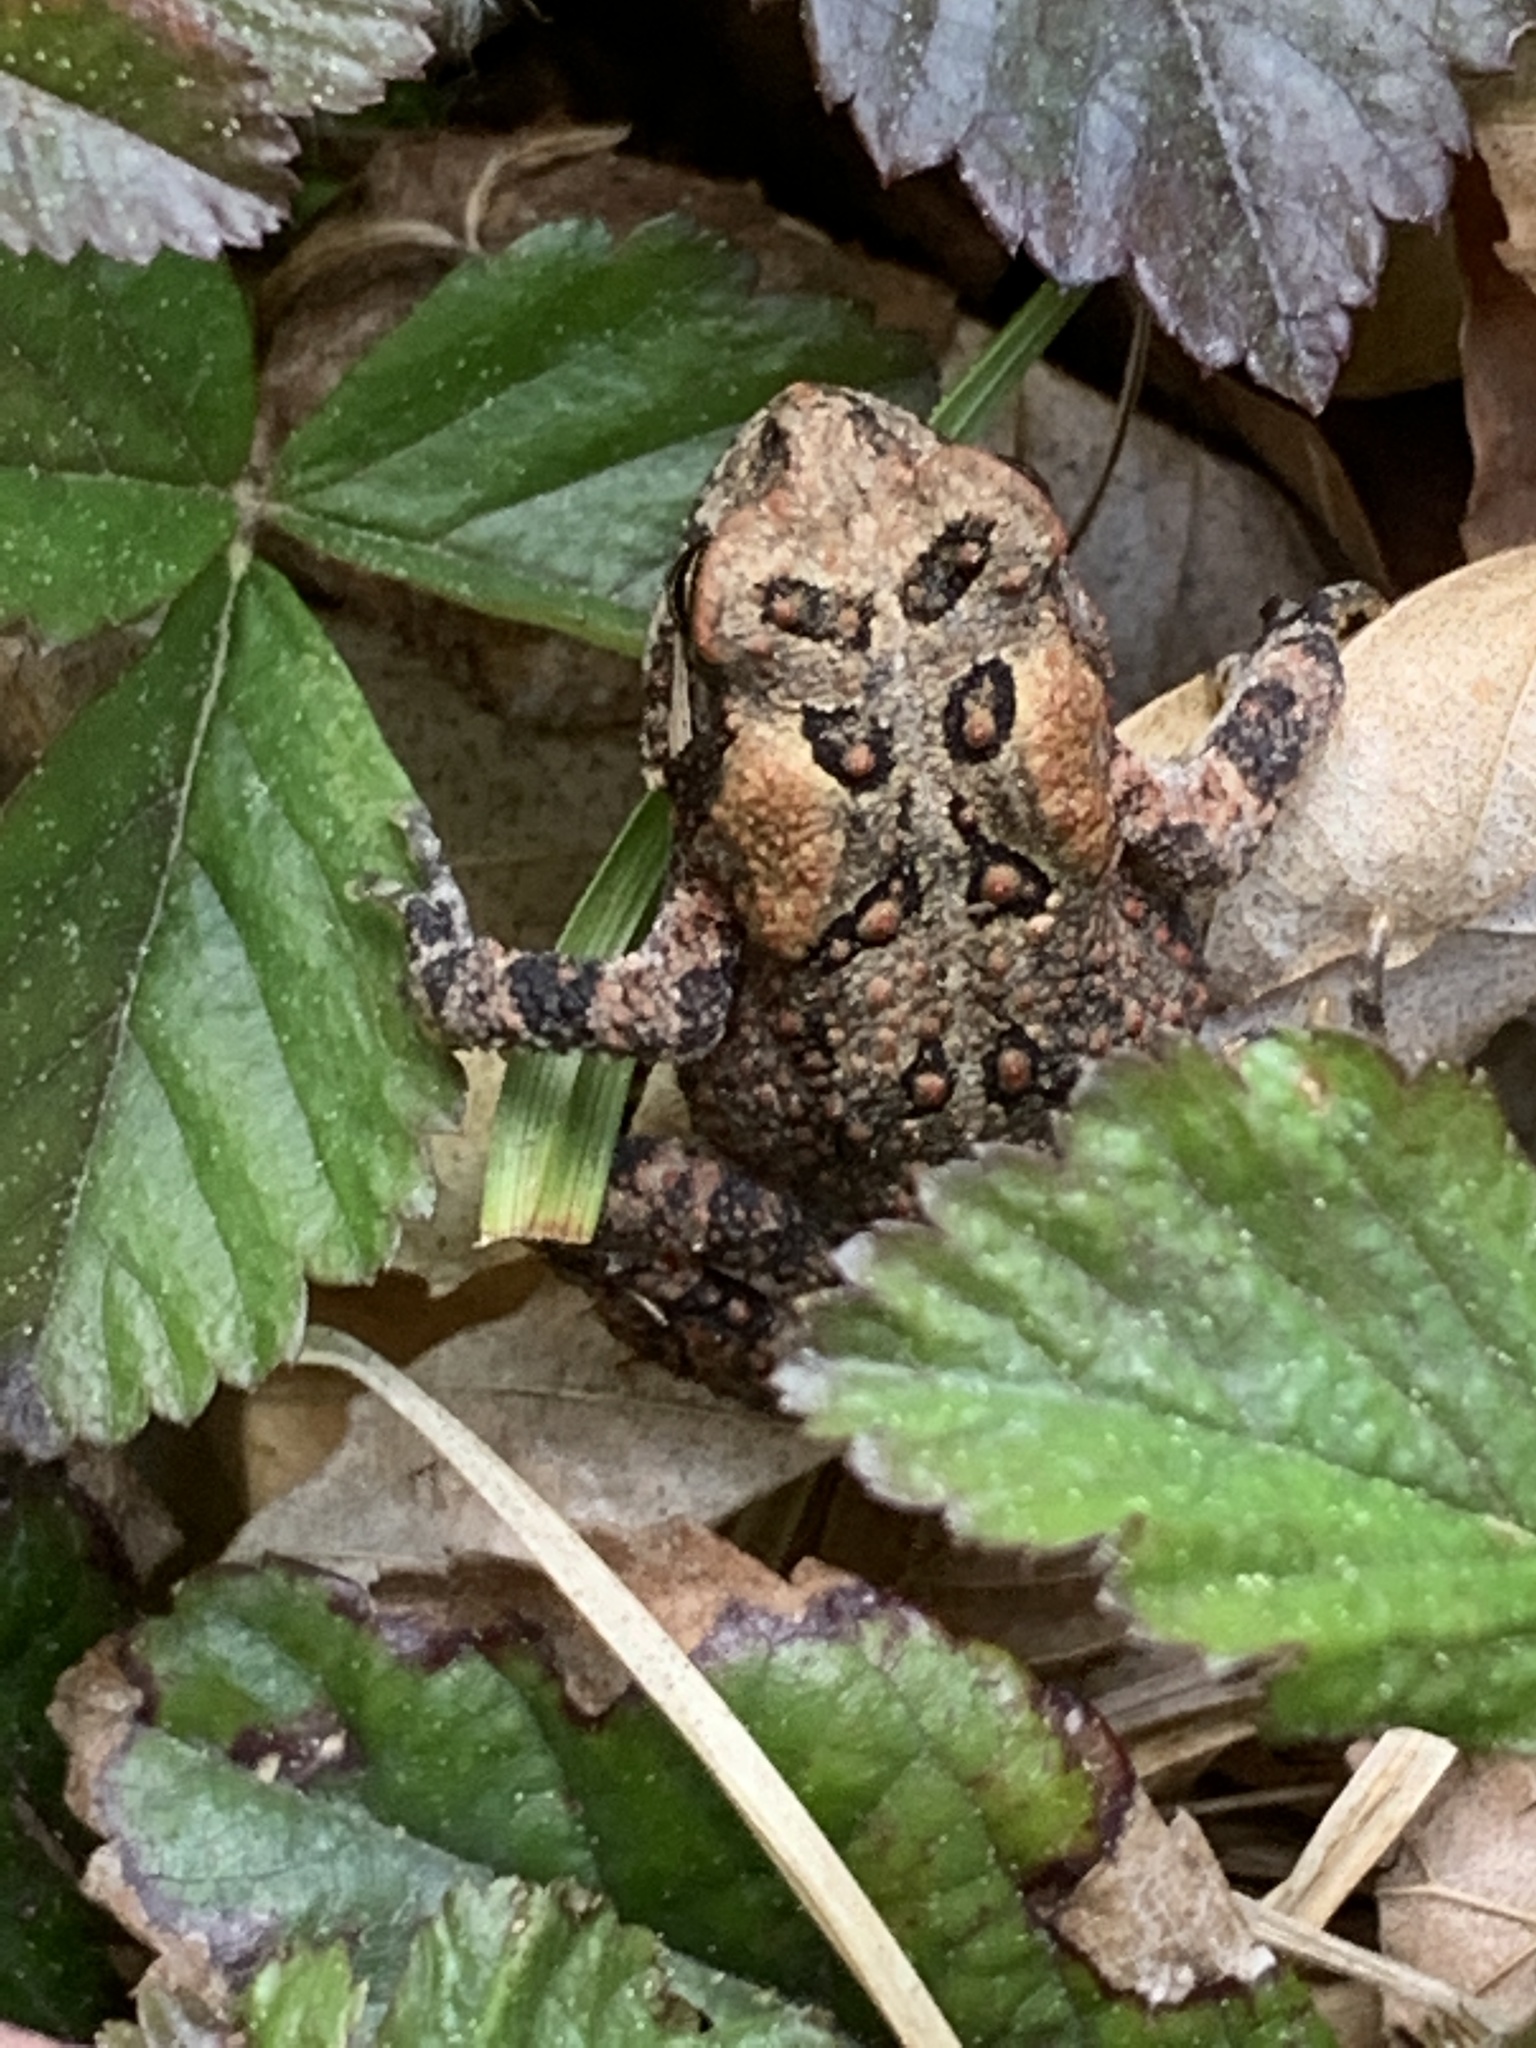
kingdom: Animalia
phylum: Chordata
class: Amphibia
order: Anura
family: Bufonidae
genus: Anaxyrus
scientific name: Anaxyrus americanus
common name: American toad
